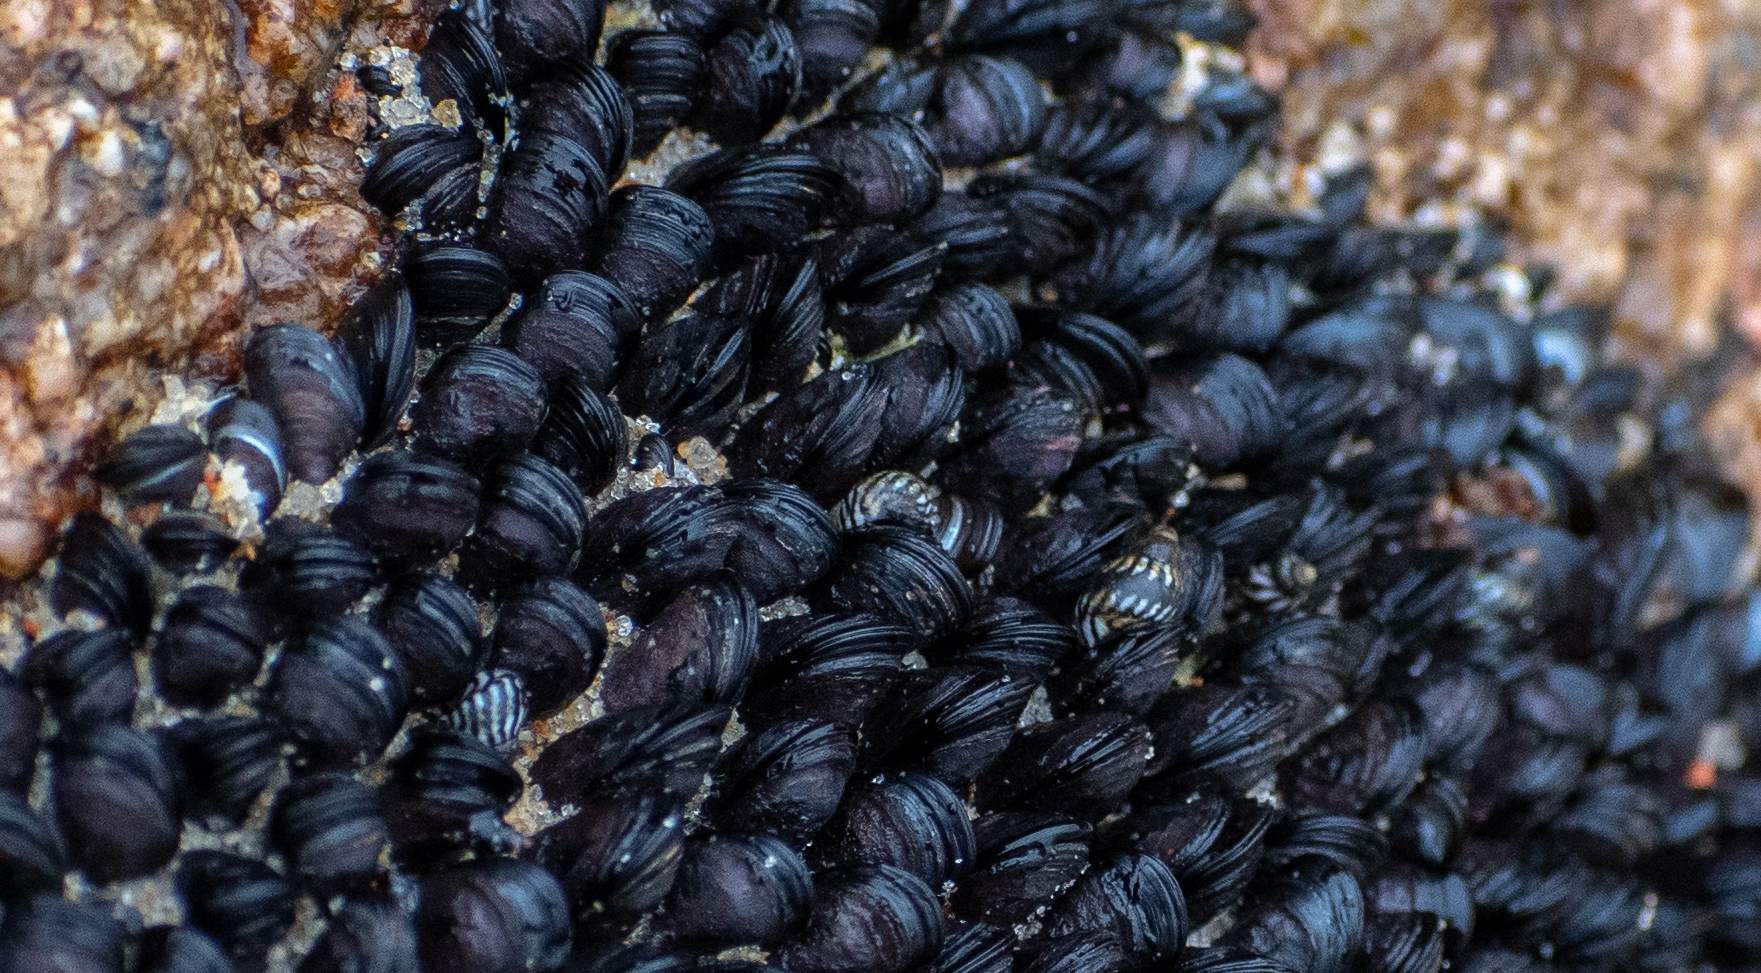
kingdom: Animalia
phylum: Mollusca
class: Gastropoda
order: Littorinimorpha
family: Littorinidae
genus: Echinolittorina
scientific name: Echinolittorina lineolata
